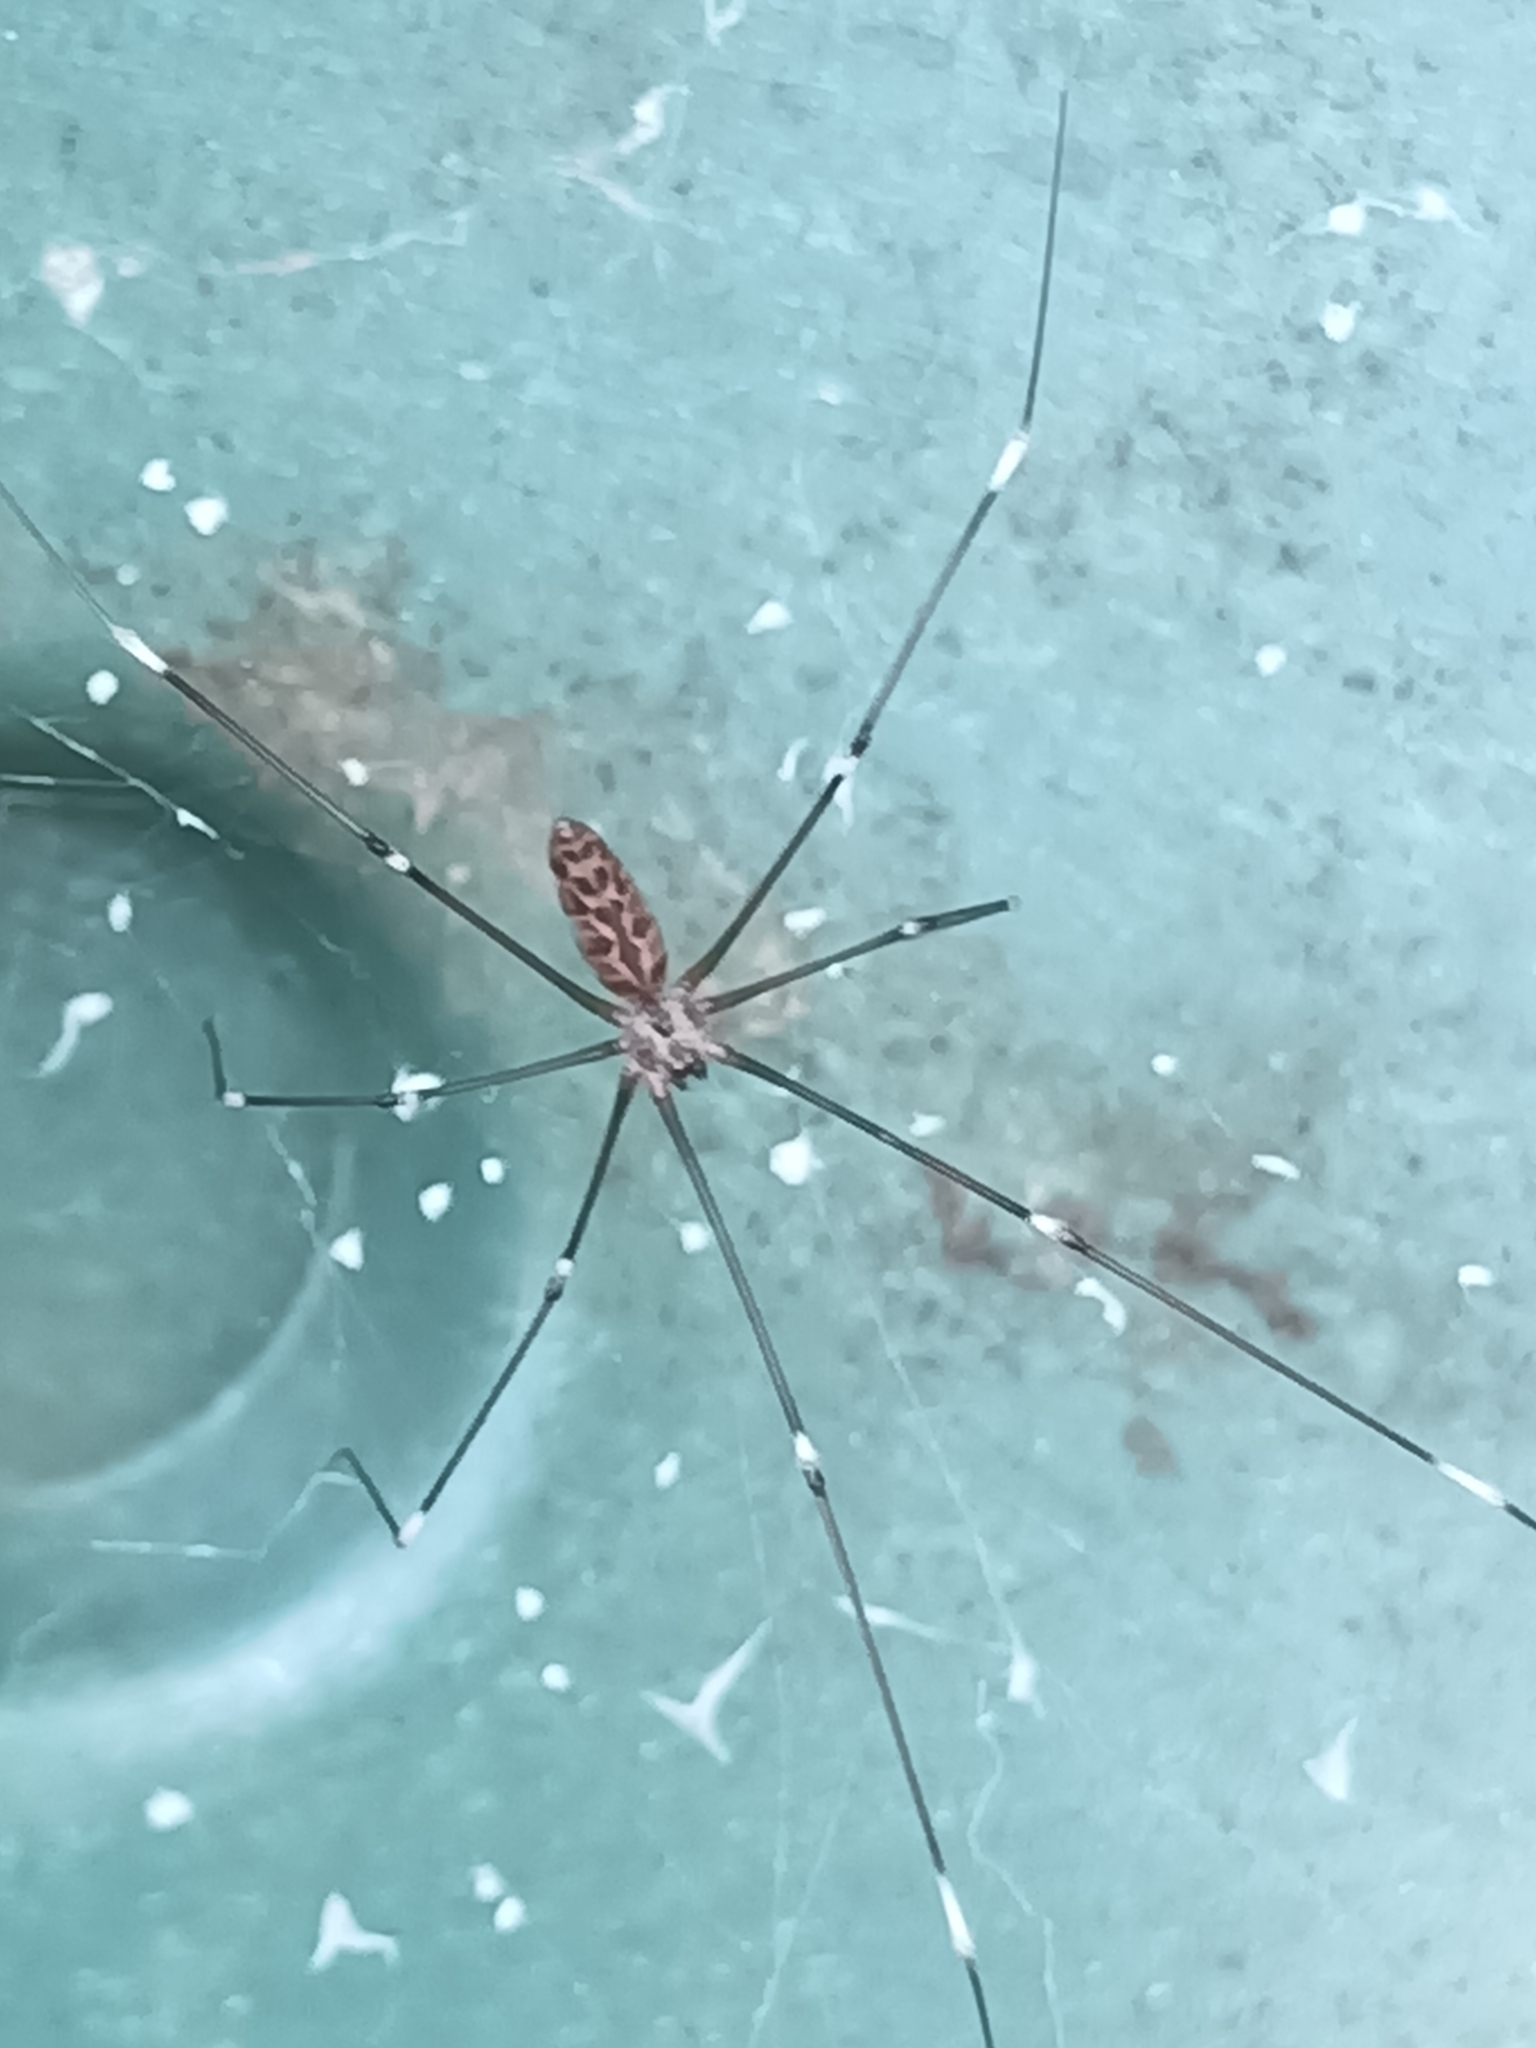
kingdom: Animalia
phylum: Arthropoda
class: Arachnida
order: Araneae
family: Pholcidae
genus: Smeringopus
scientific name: Smeringopus pallidus
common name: Cellar spider
